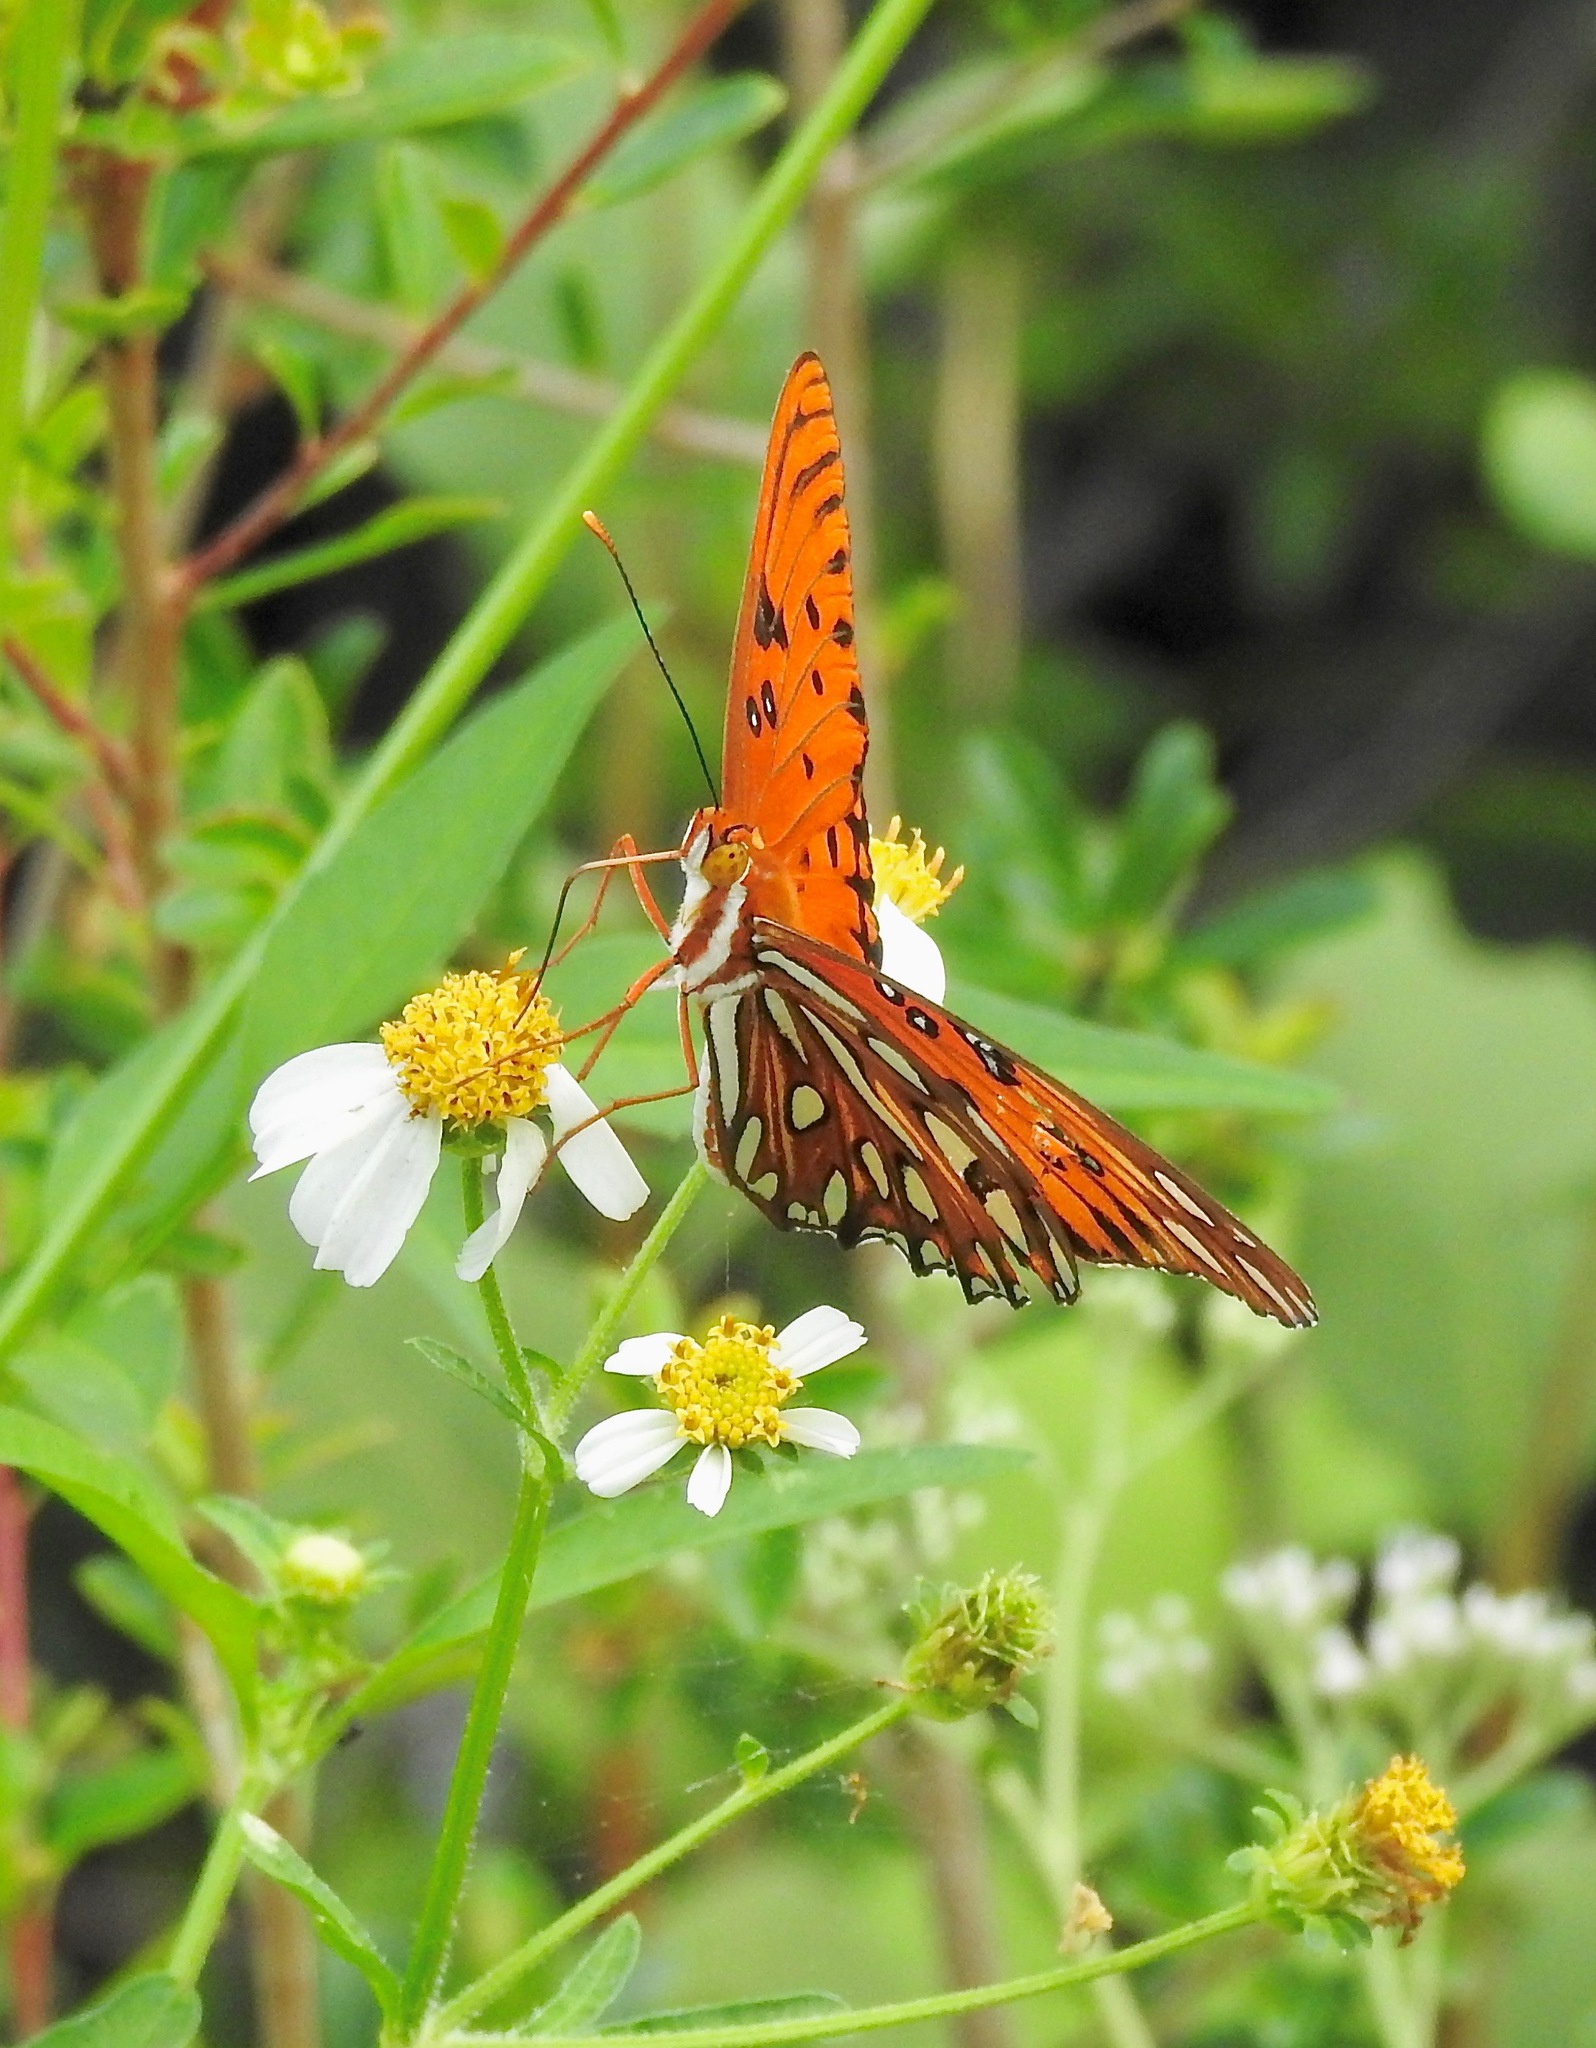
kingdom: Animalia
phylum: Arthropoda
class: Insecta
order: Lepidoptera
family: Nymphalidae
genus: Dione
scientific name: Dione vanillae
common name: Gulf fritillary
